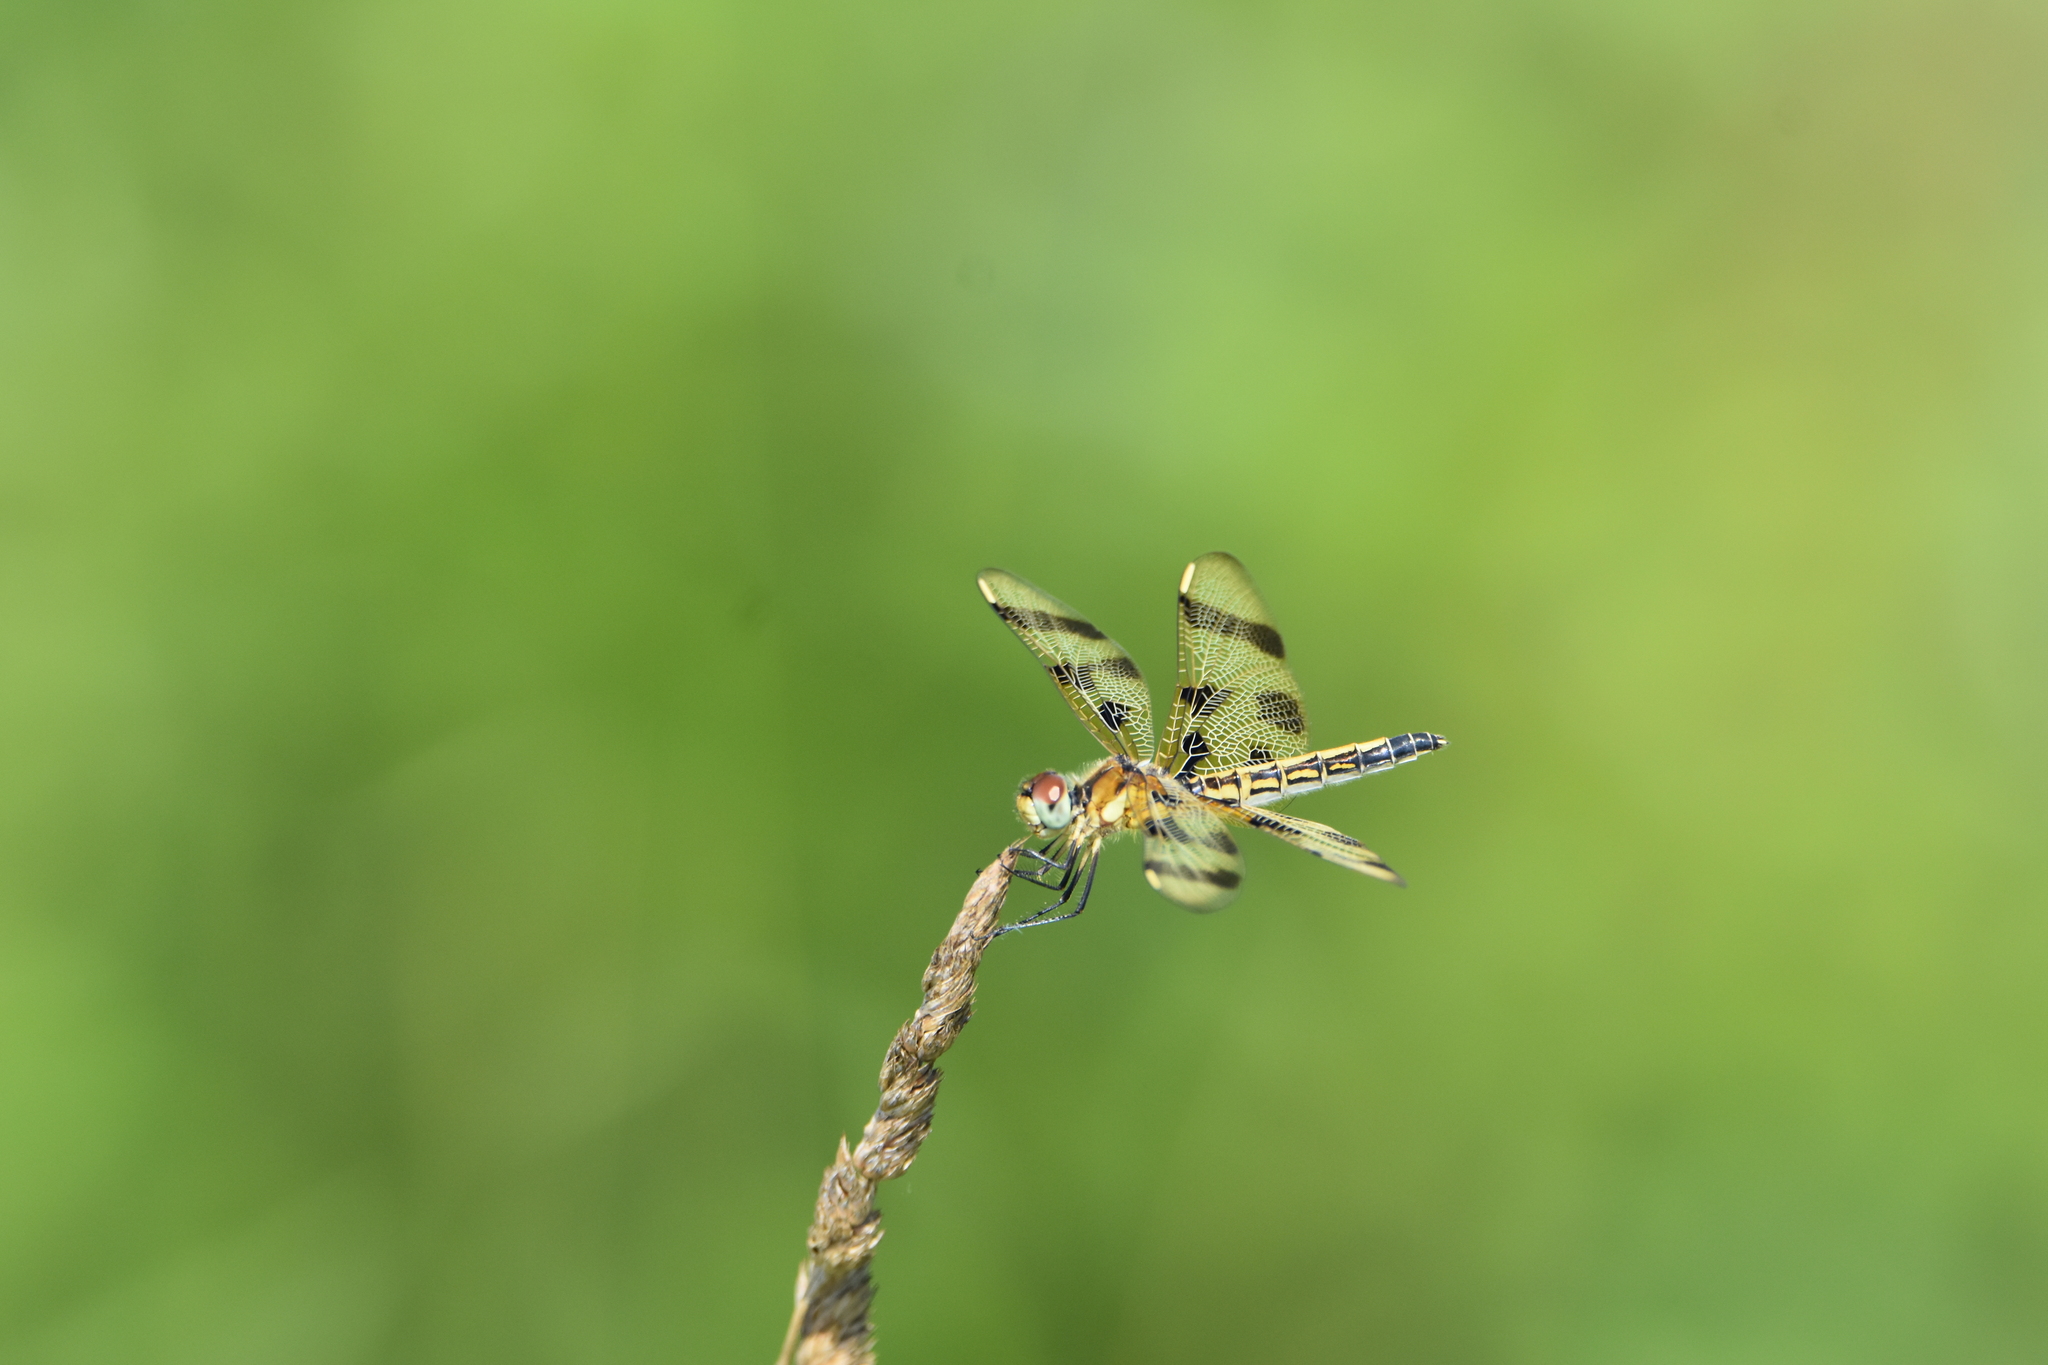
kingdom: Animalia
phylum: Arthropoda
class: Insecta
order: Odonata
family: Libellulidae
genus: Celithemis
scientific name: Celithemis eponina
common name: Halloween pennant
